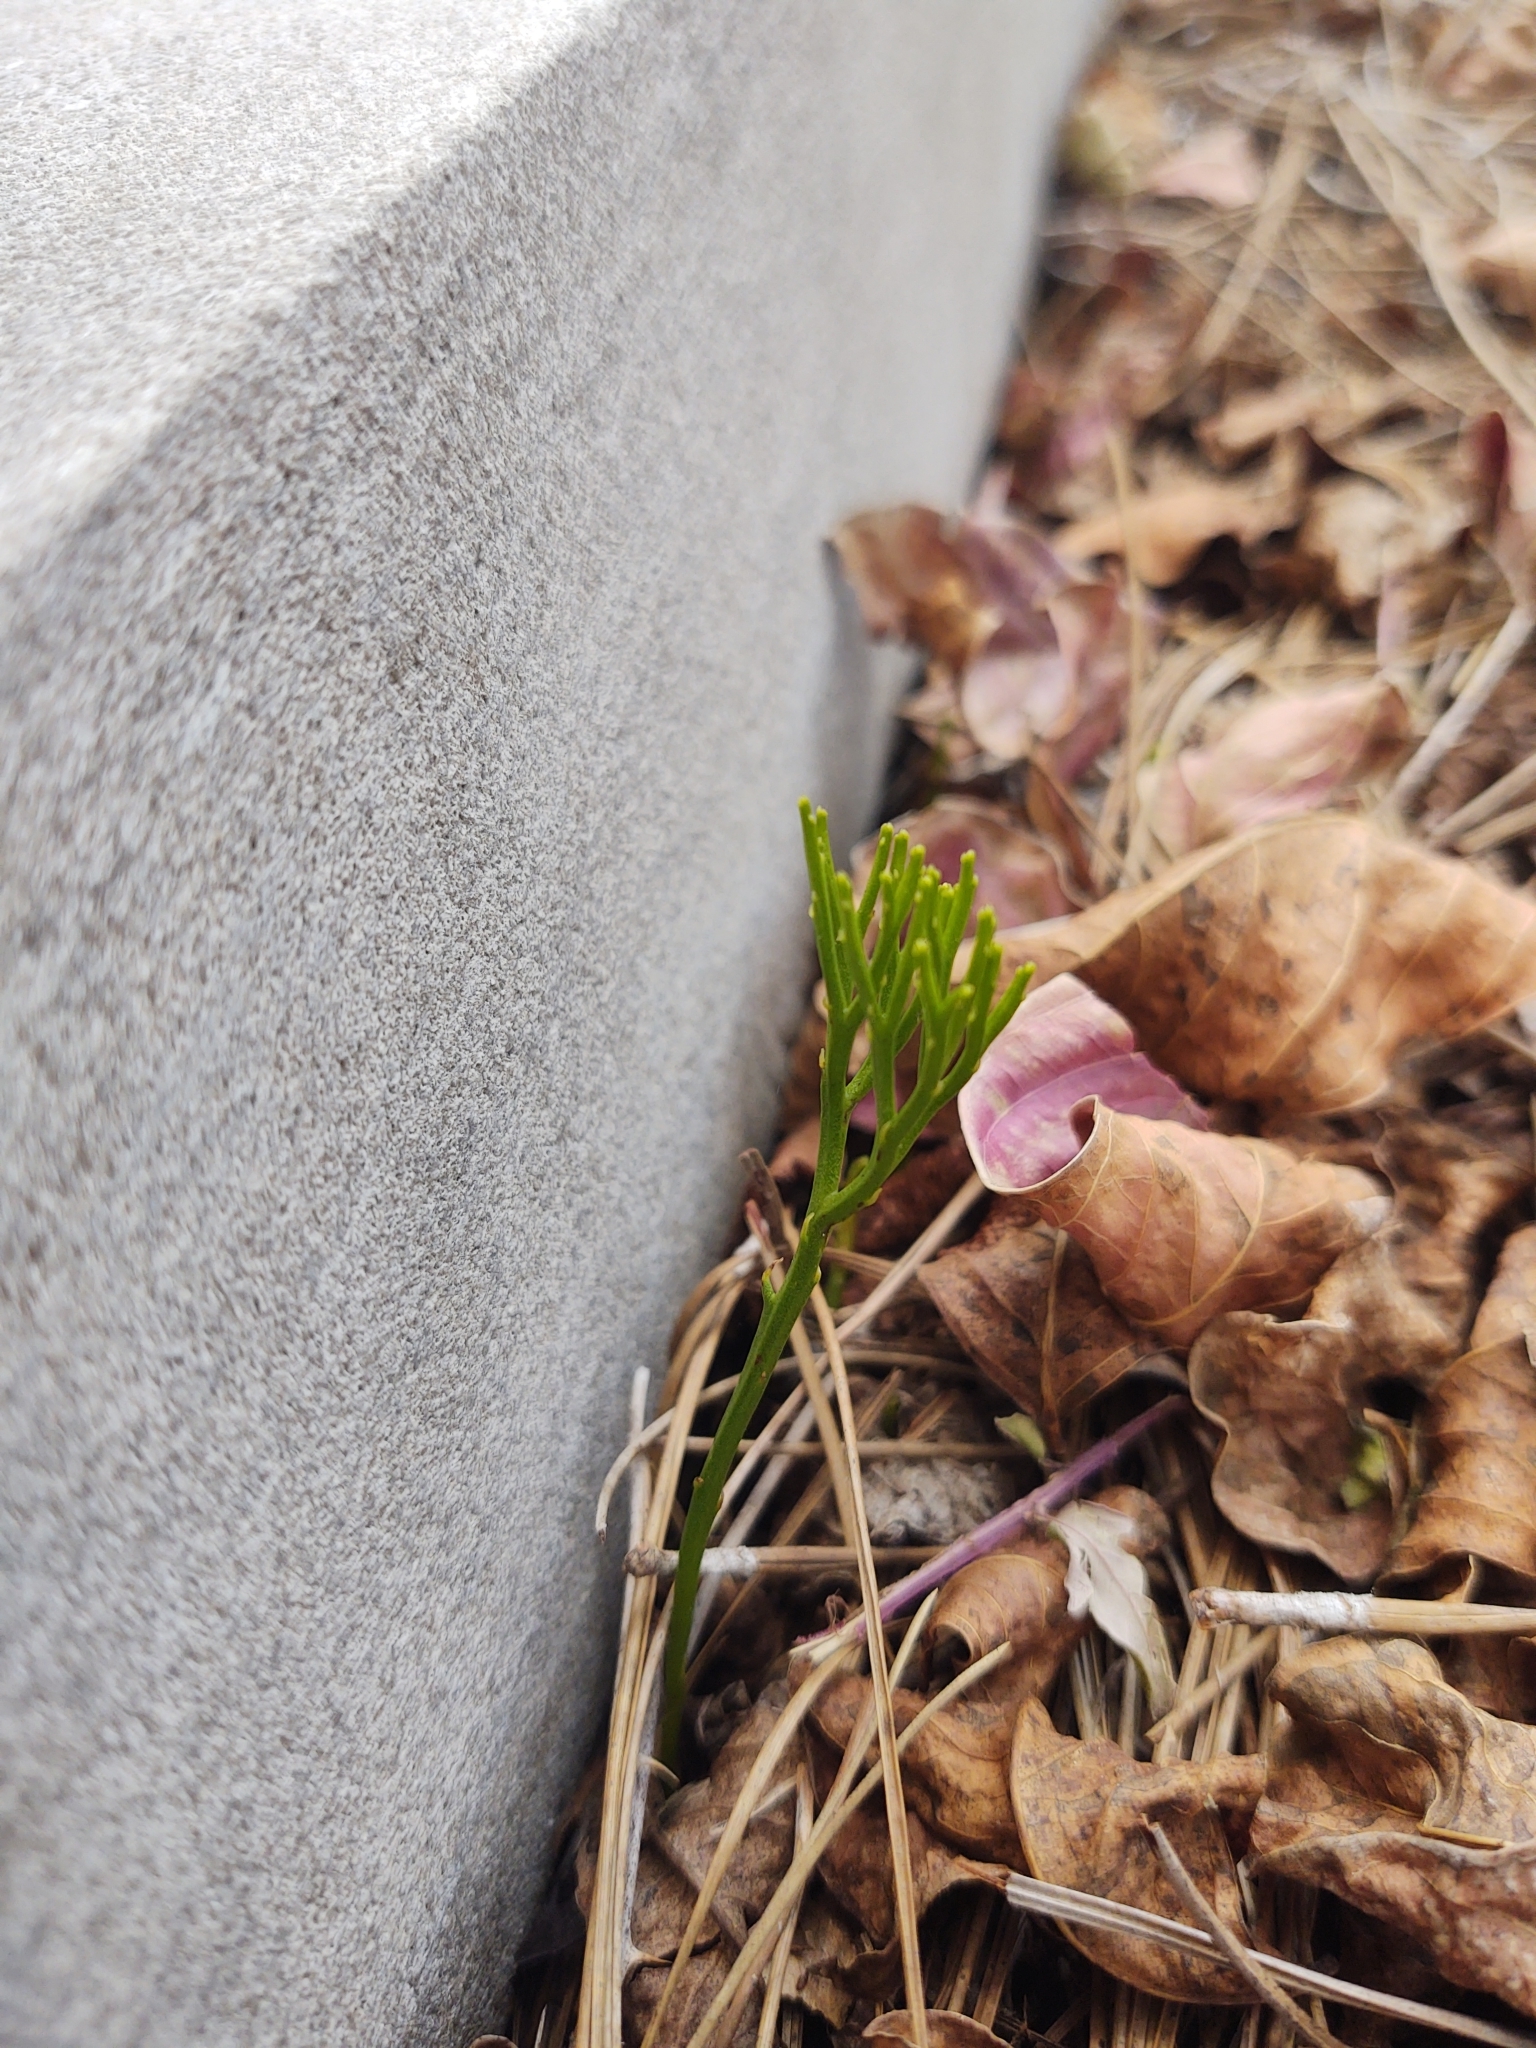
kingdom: Plantae
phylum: Tracheophyta
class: Polypodiopsida
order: Psilotales
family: Psilotaceae
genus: Psilotum
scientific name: Psilotum nudum
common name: Skeleton fork fern
